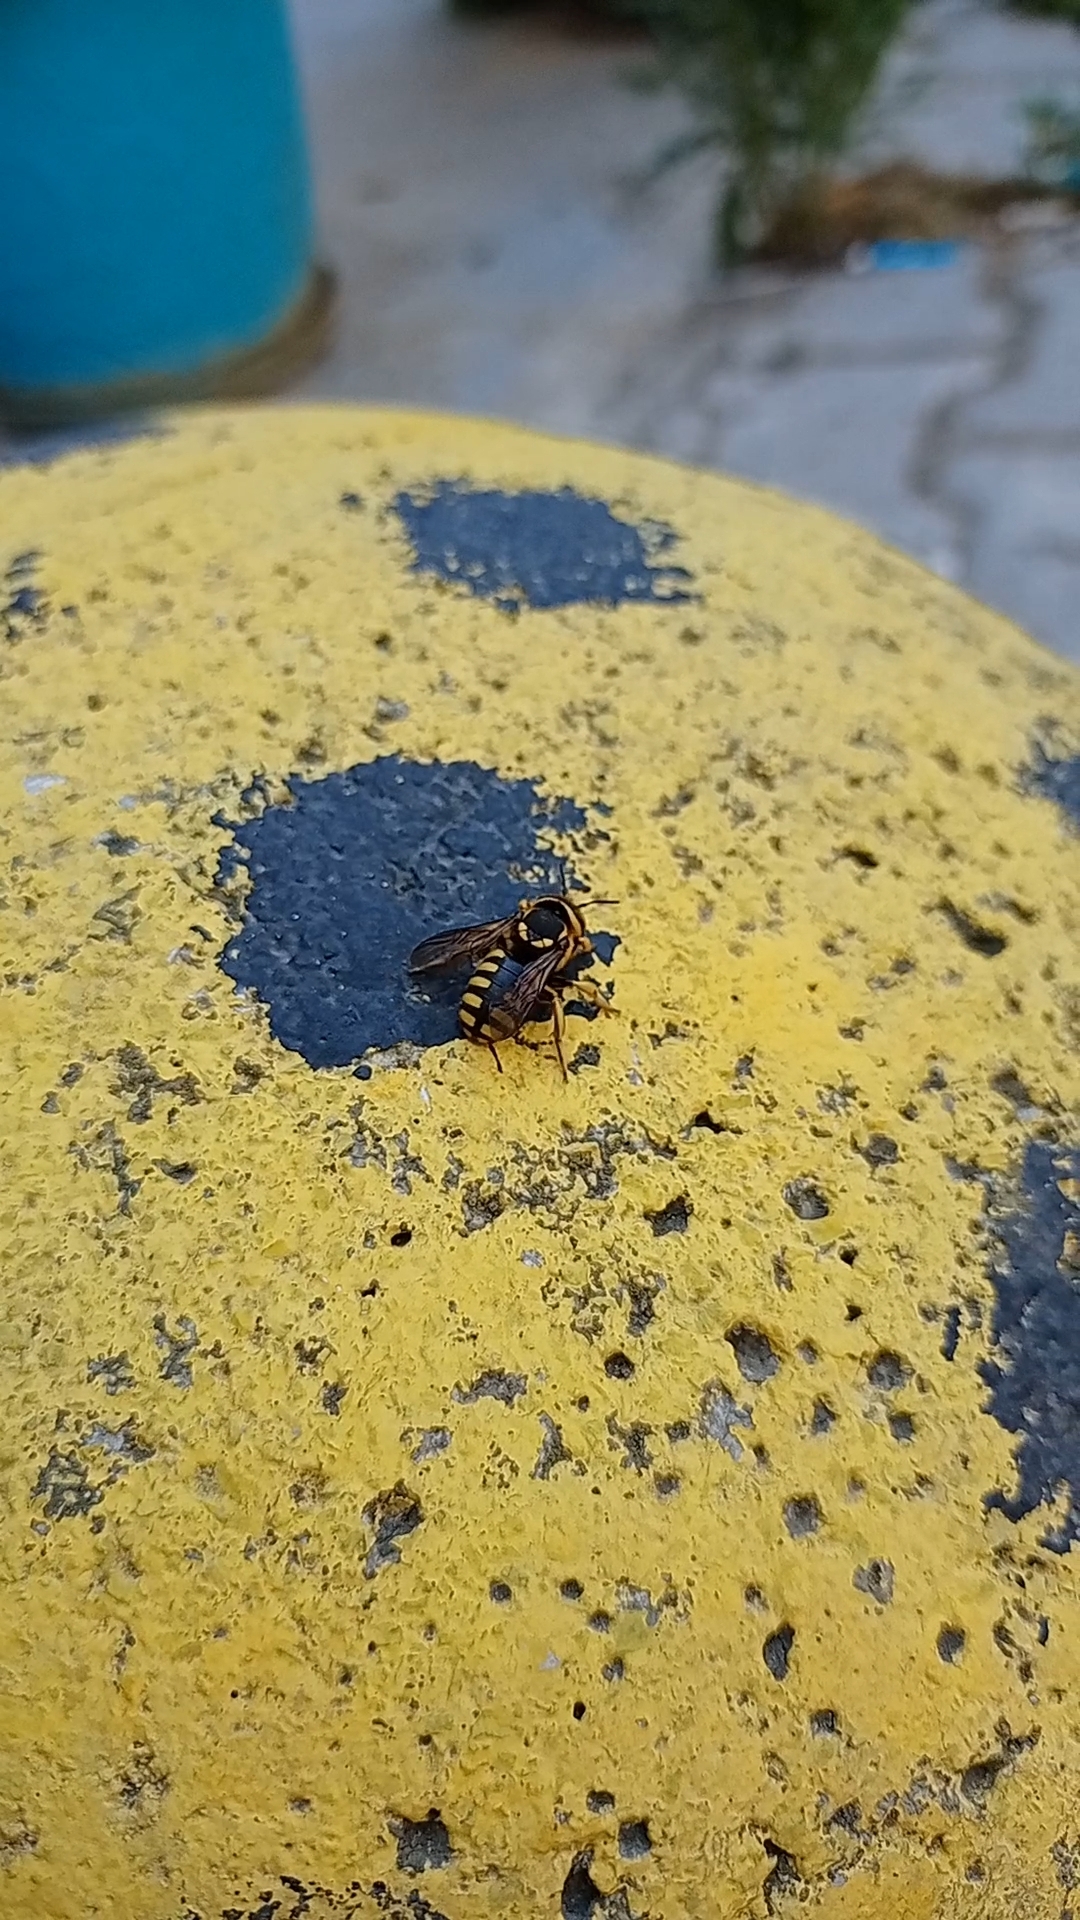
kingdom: Animalia
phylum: Arthropoda
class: Insecta
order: Hymenoptera
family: Megachilidae
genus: Anthidium
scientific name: Anthidium florentinum
